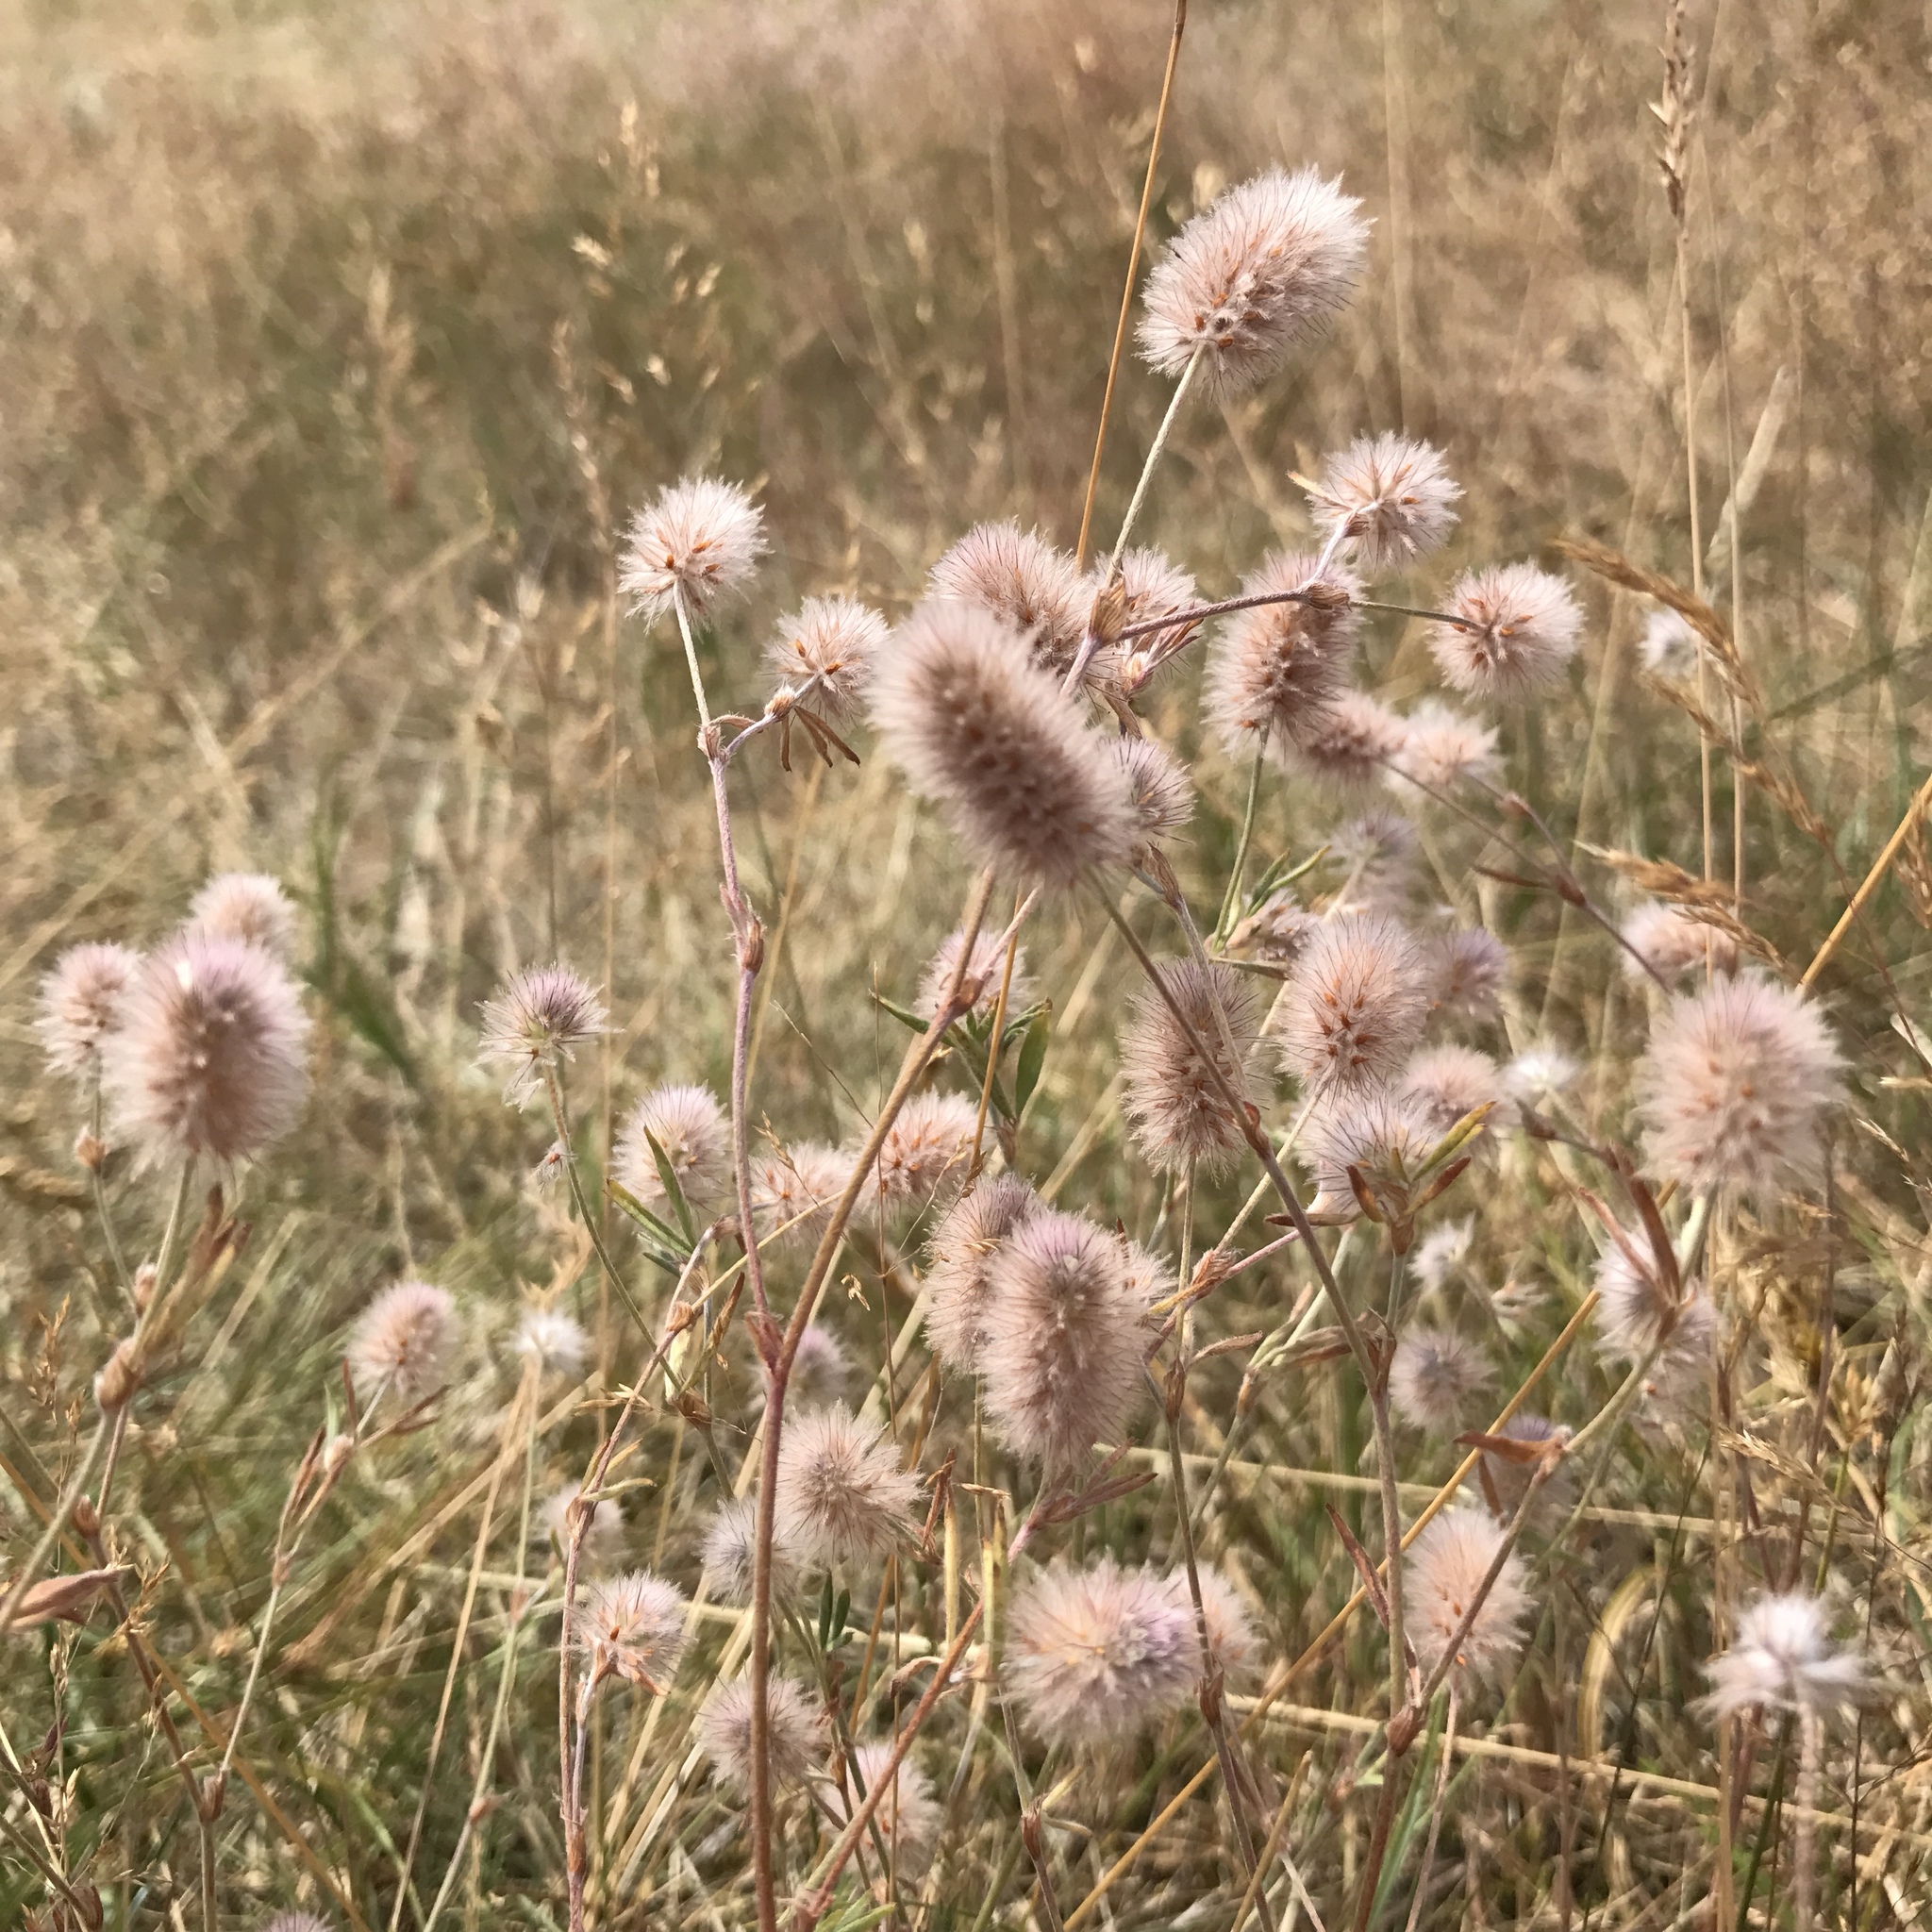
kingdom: Plantae
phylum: Tracheophyta
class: Magnoliopsida
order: Fabales
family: Fabaceae
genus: Trifolium
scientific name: Trifolium arvense
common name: Hare's-foot clover
